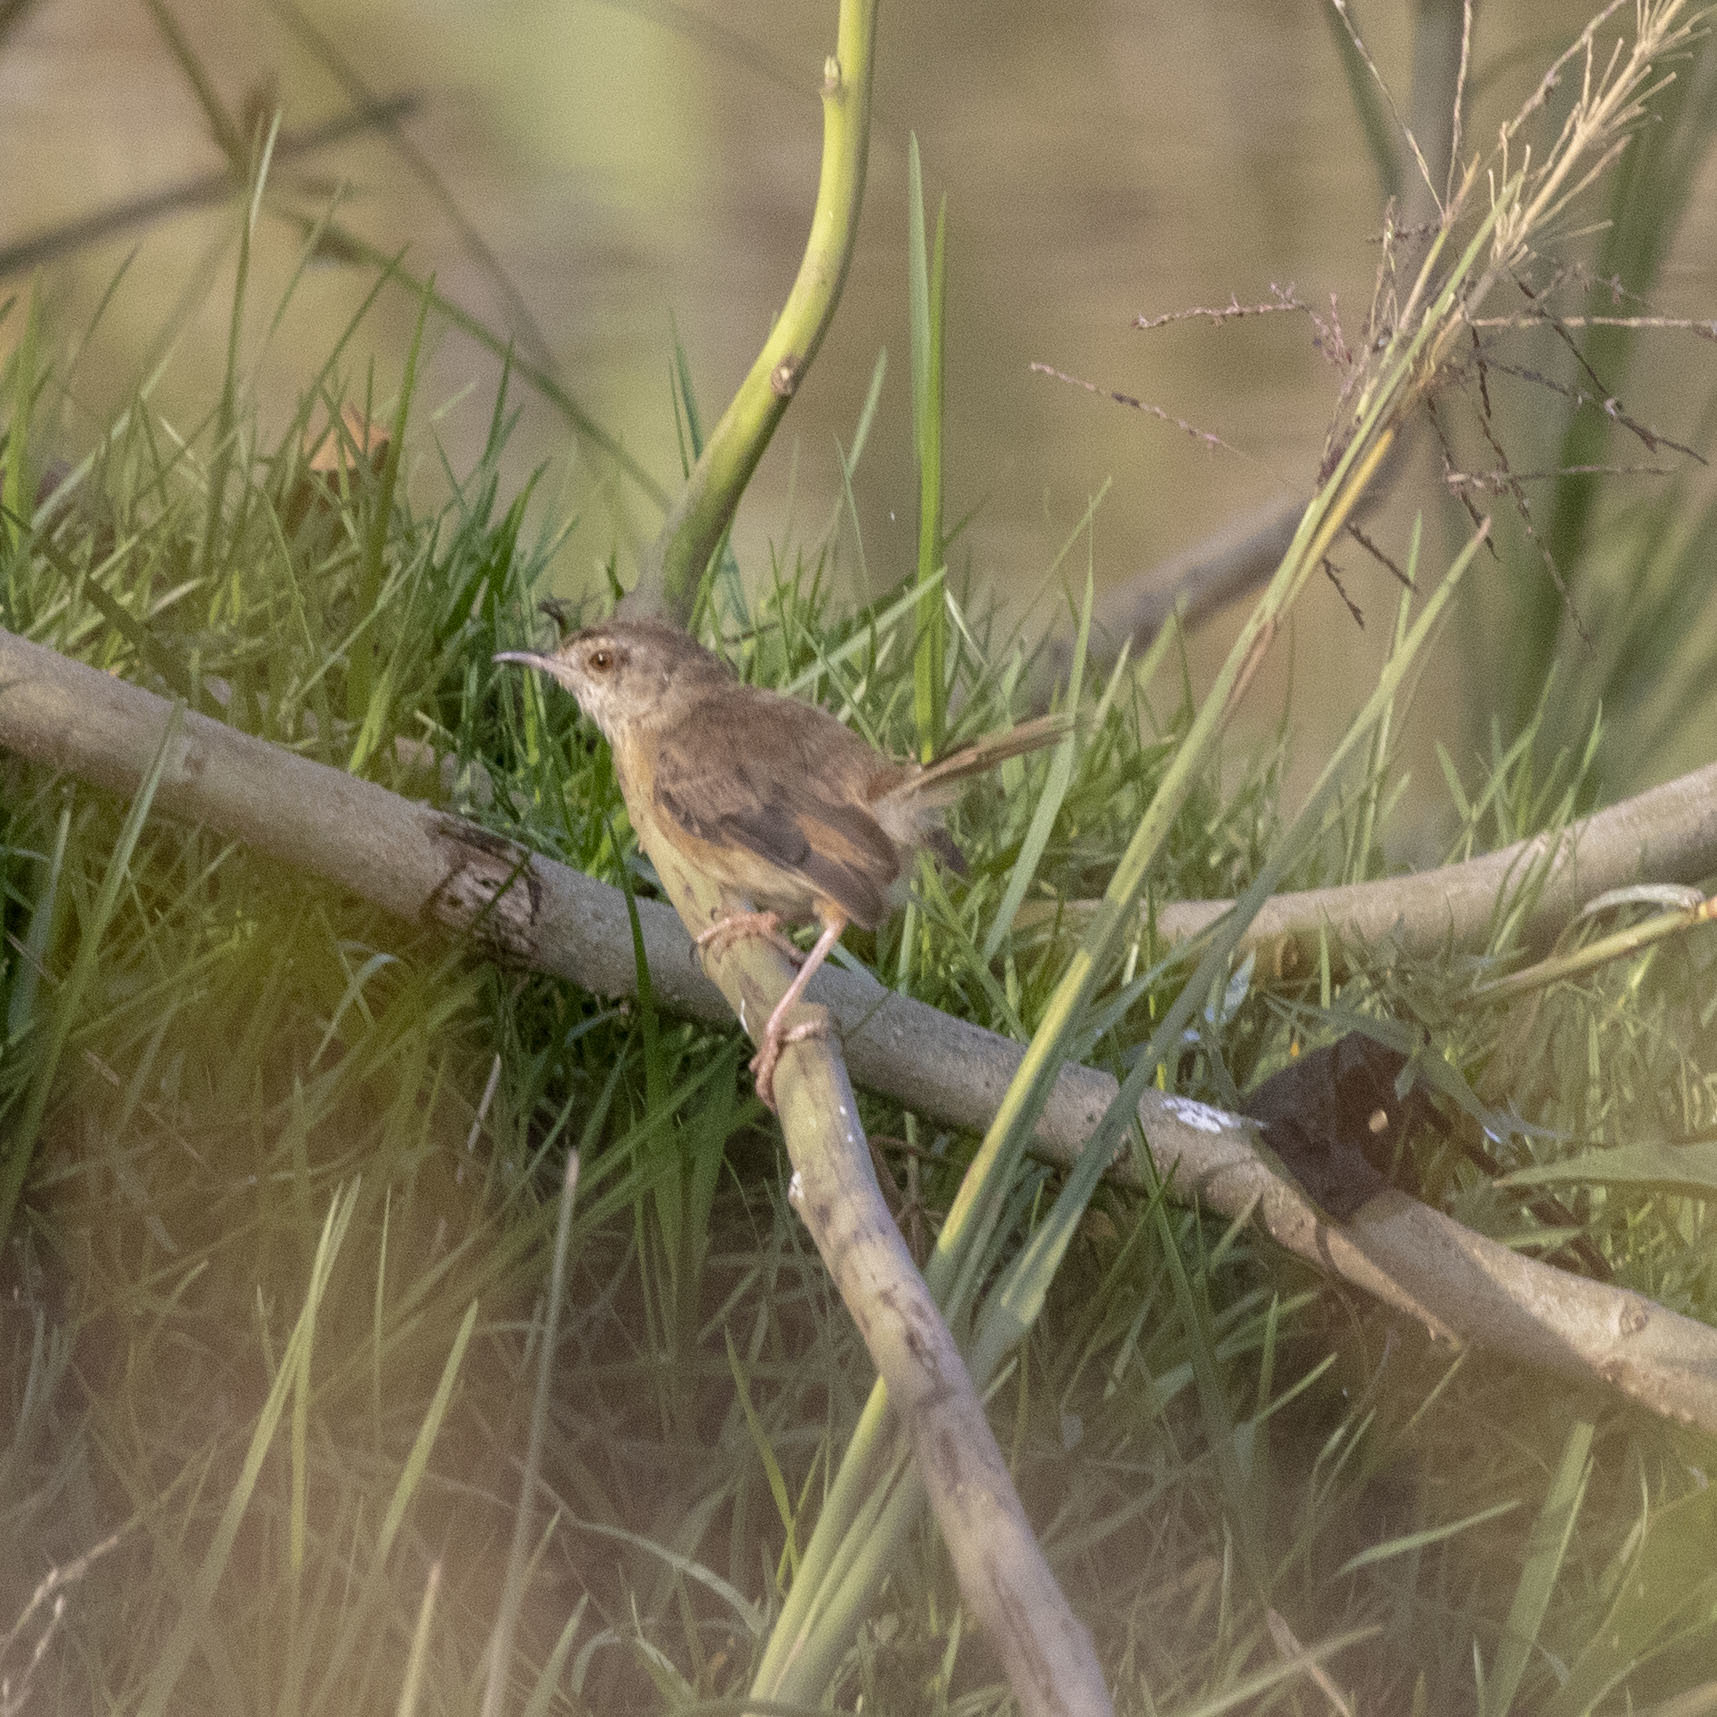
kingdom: Animalia
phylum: Chordata
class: Aves
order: Passeriformes
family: Cisticolidae
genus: Prinia
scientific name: Prinia inornata
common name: Plain prinia
